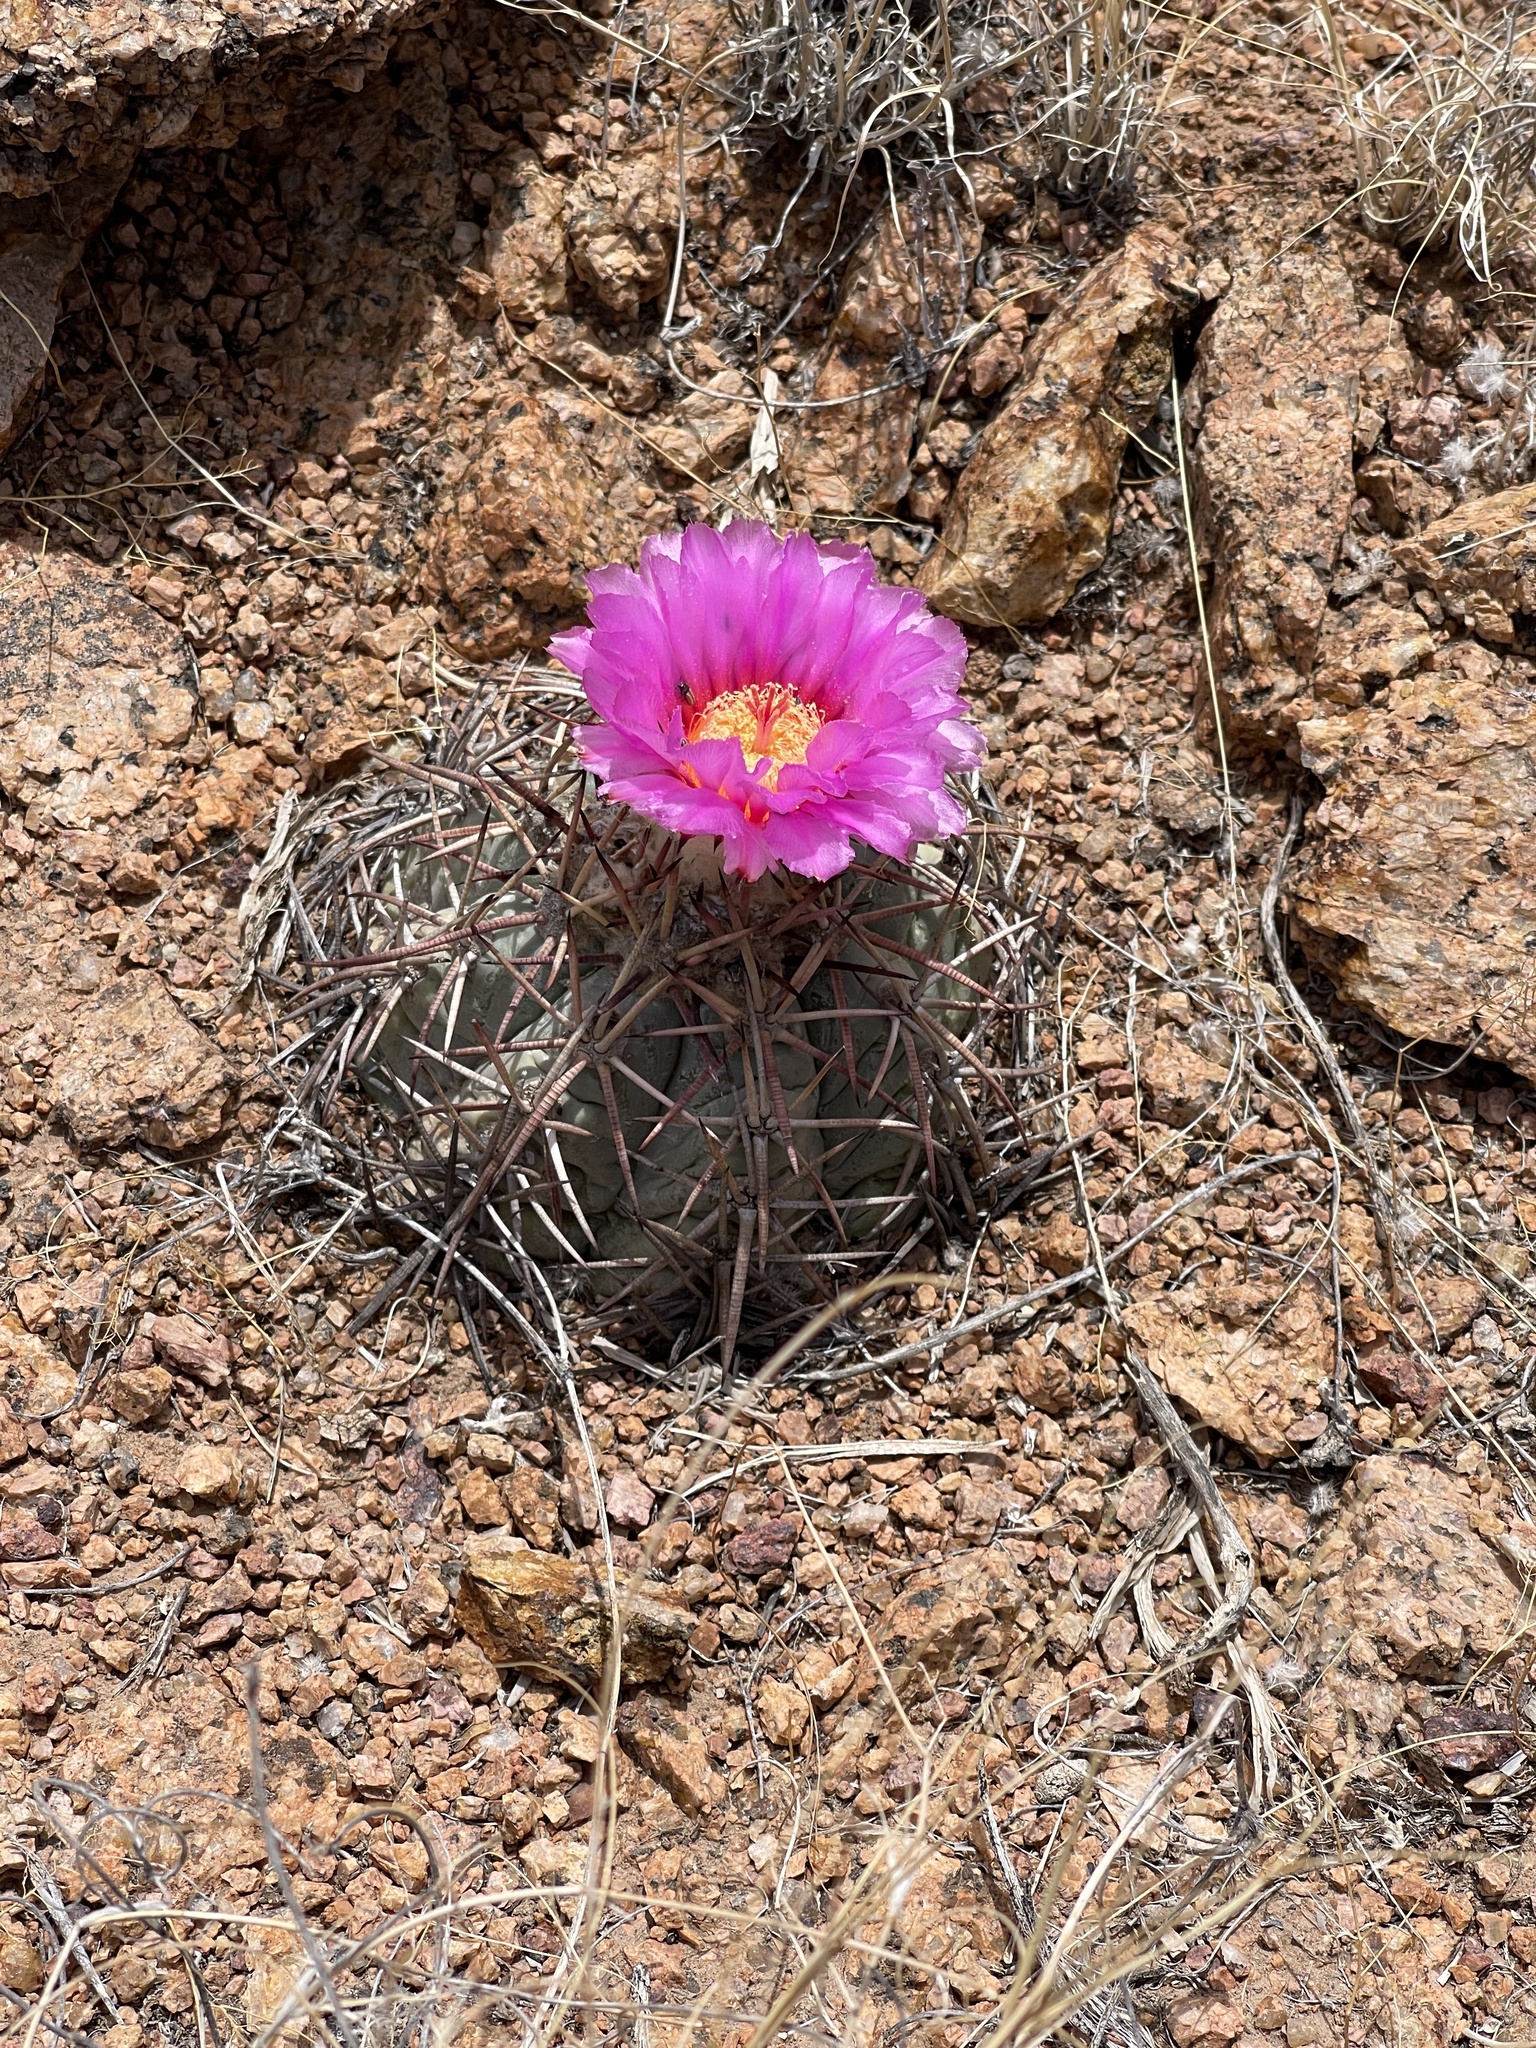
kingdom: Plantae
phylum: Tracheophyta
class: Magnoliopsida
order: Caryophyllales
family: Cactaceae
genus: Echinocactus
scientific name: Echinocactus horizonthalonius
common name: Devilshead
